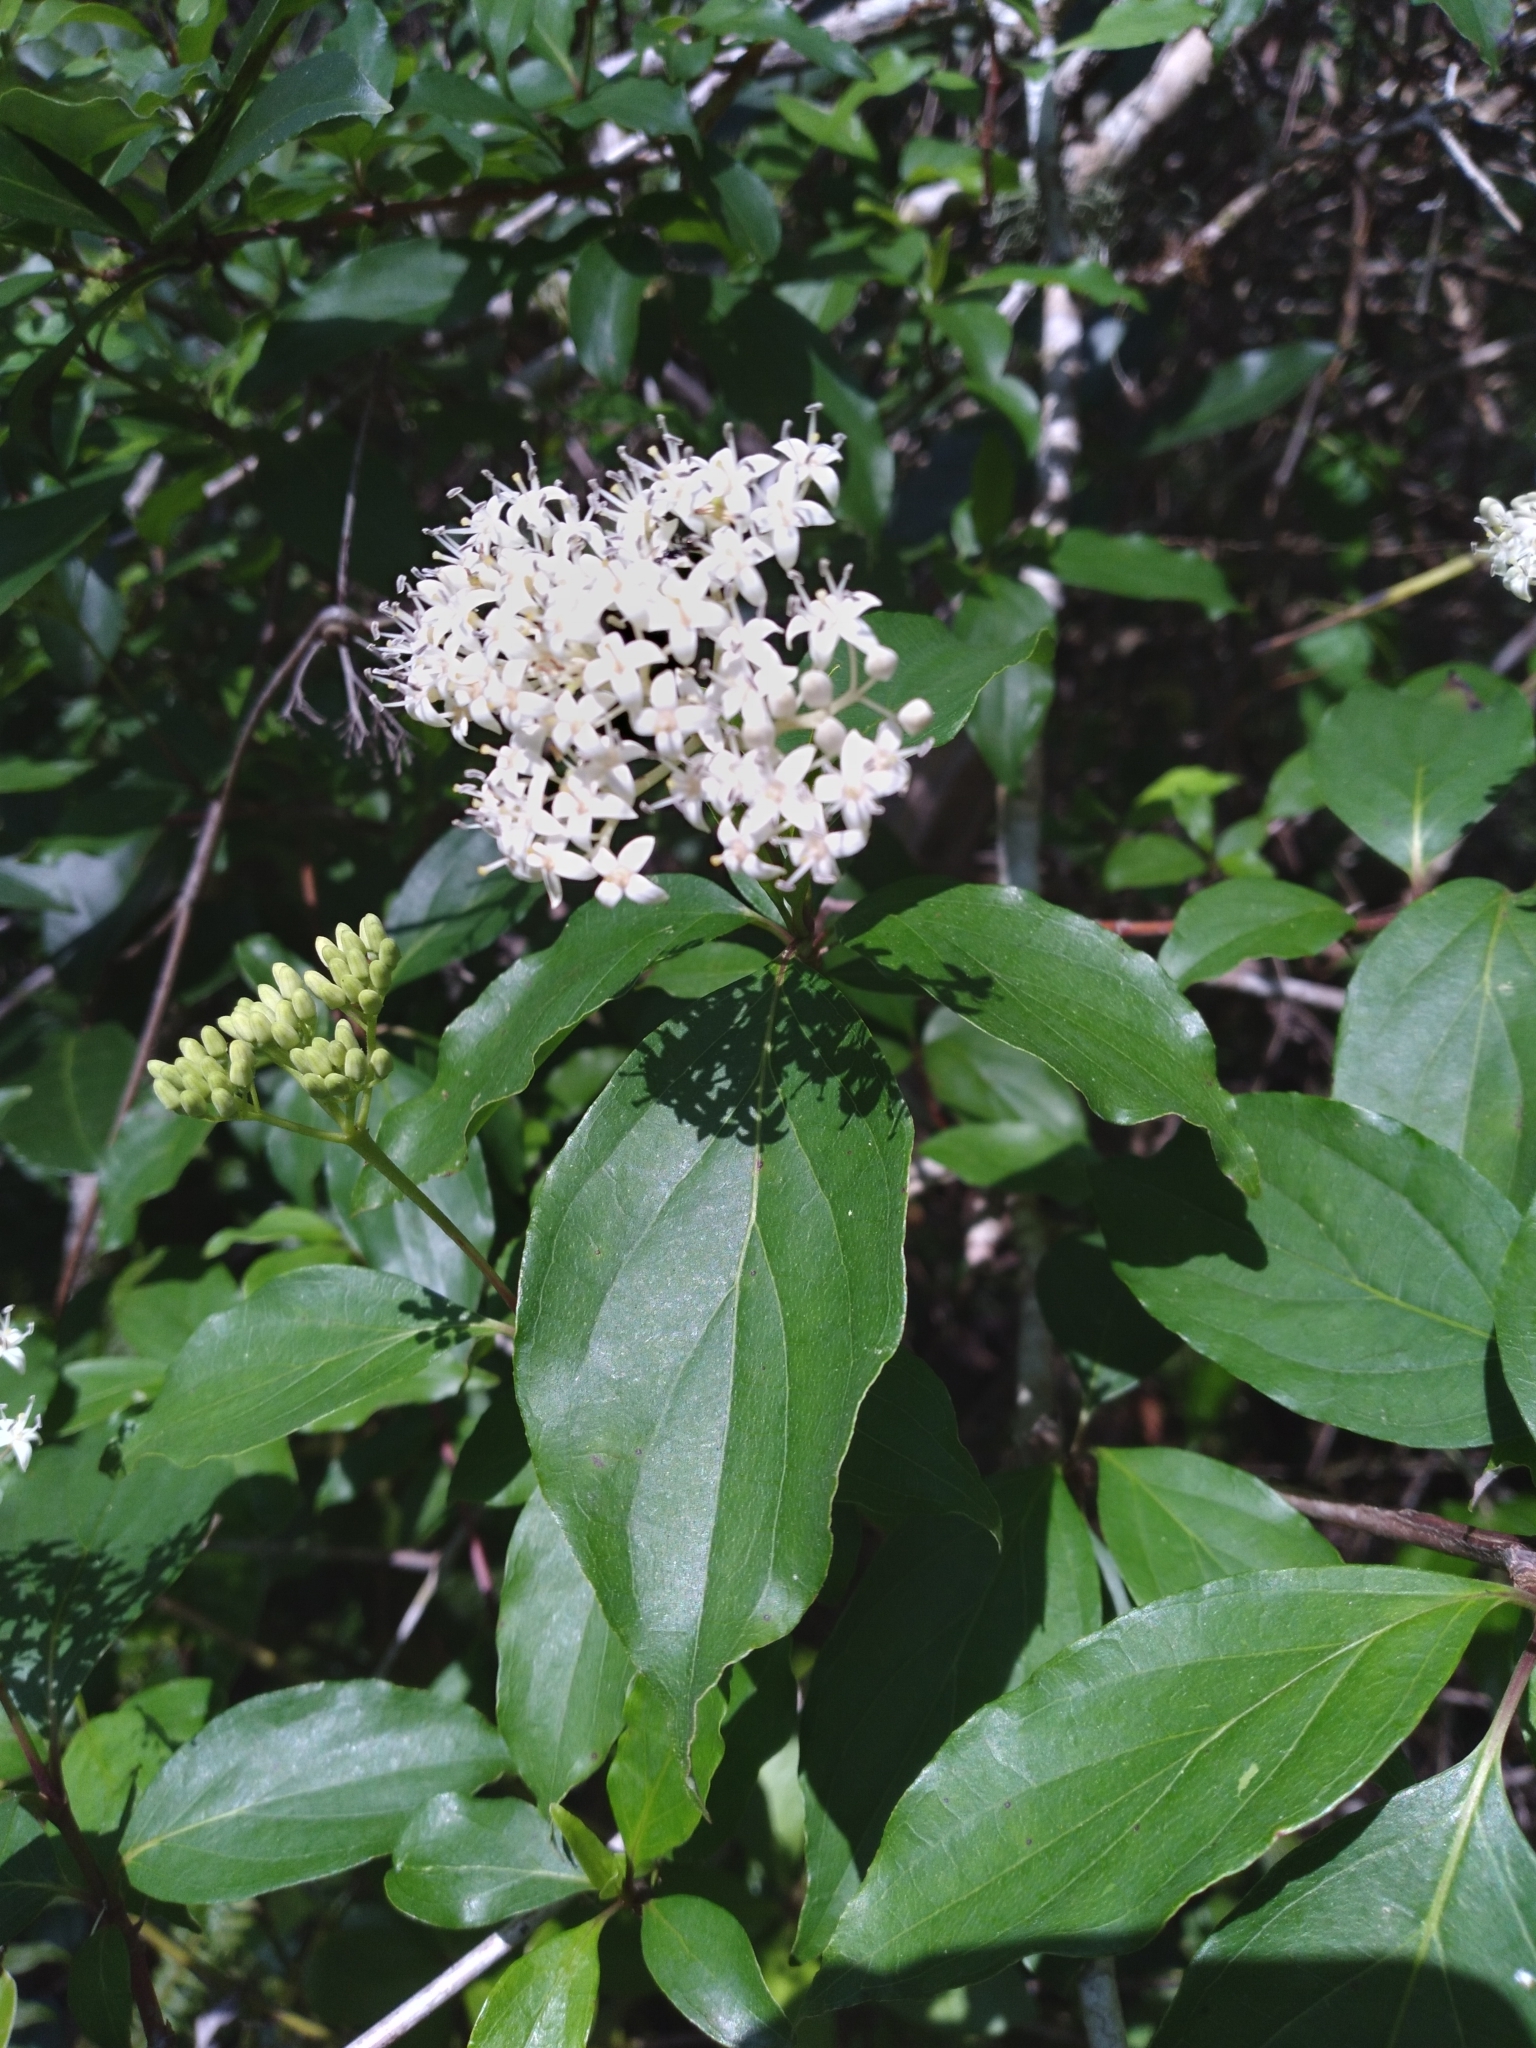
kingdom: Plantae
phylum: Tracheophyta
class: Magnoliopsida
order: Cornales
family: Cornaceae
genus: Cornus
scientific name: Cornus foemina
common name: Swamp dogwood
